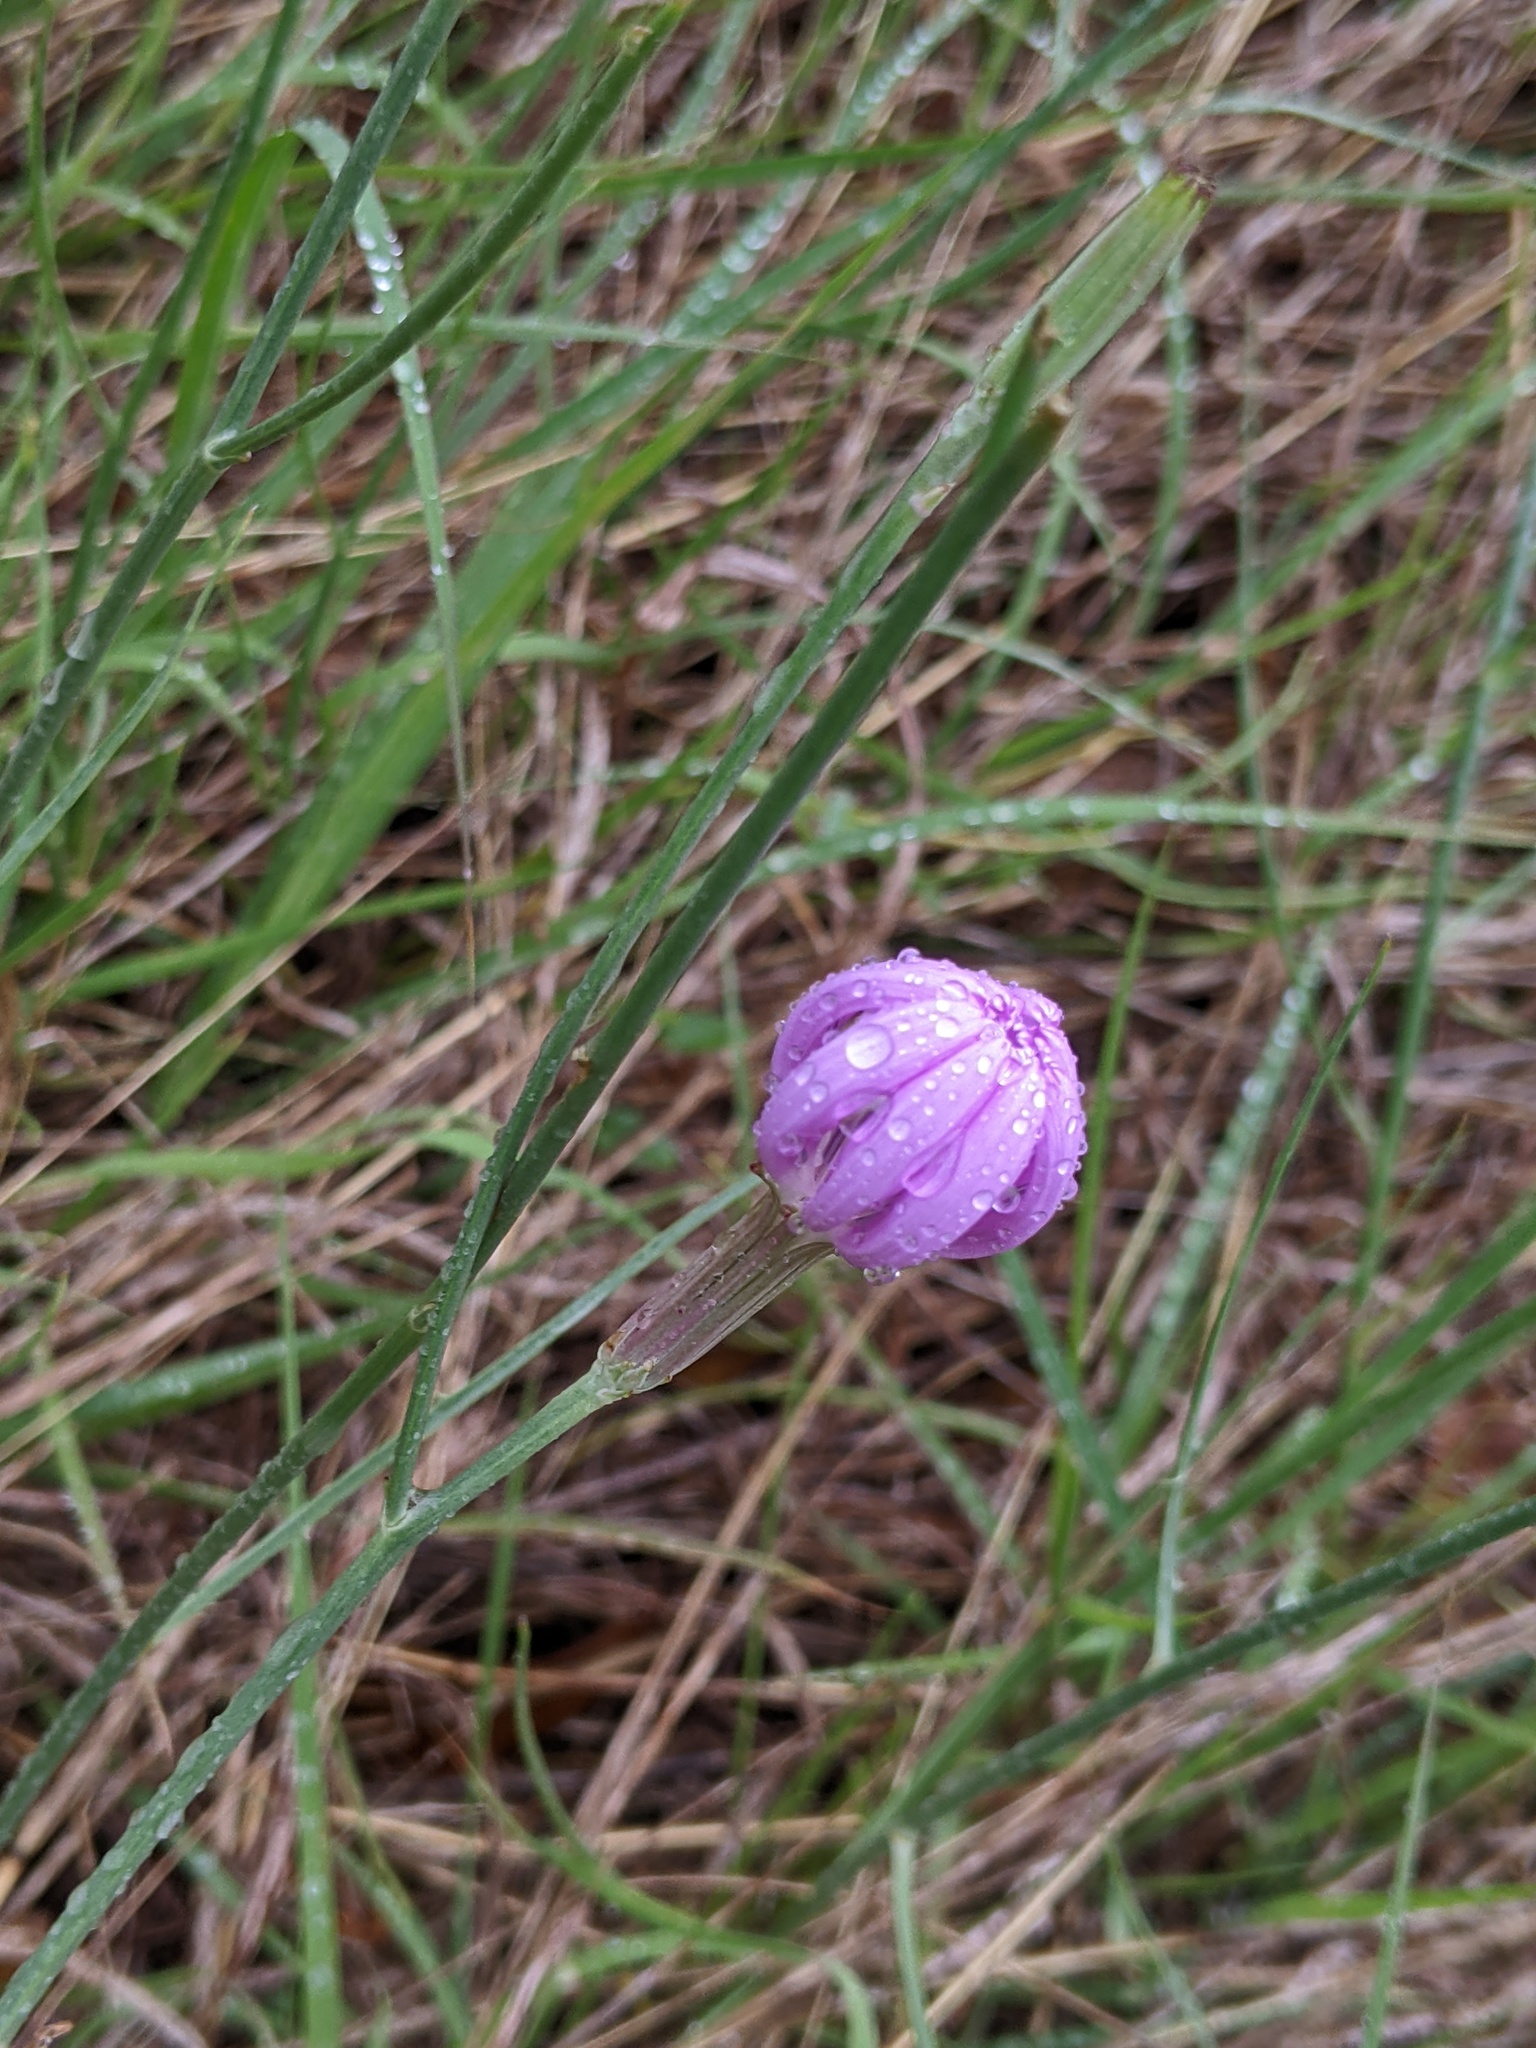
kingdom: Plantae
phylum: Tracheophyta
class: Magnoliopsida
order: Asterales
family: Asteraceae
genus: Lygodesmia
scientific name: Lygodesmia texana
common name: Texas skeleton-plant
